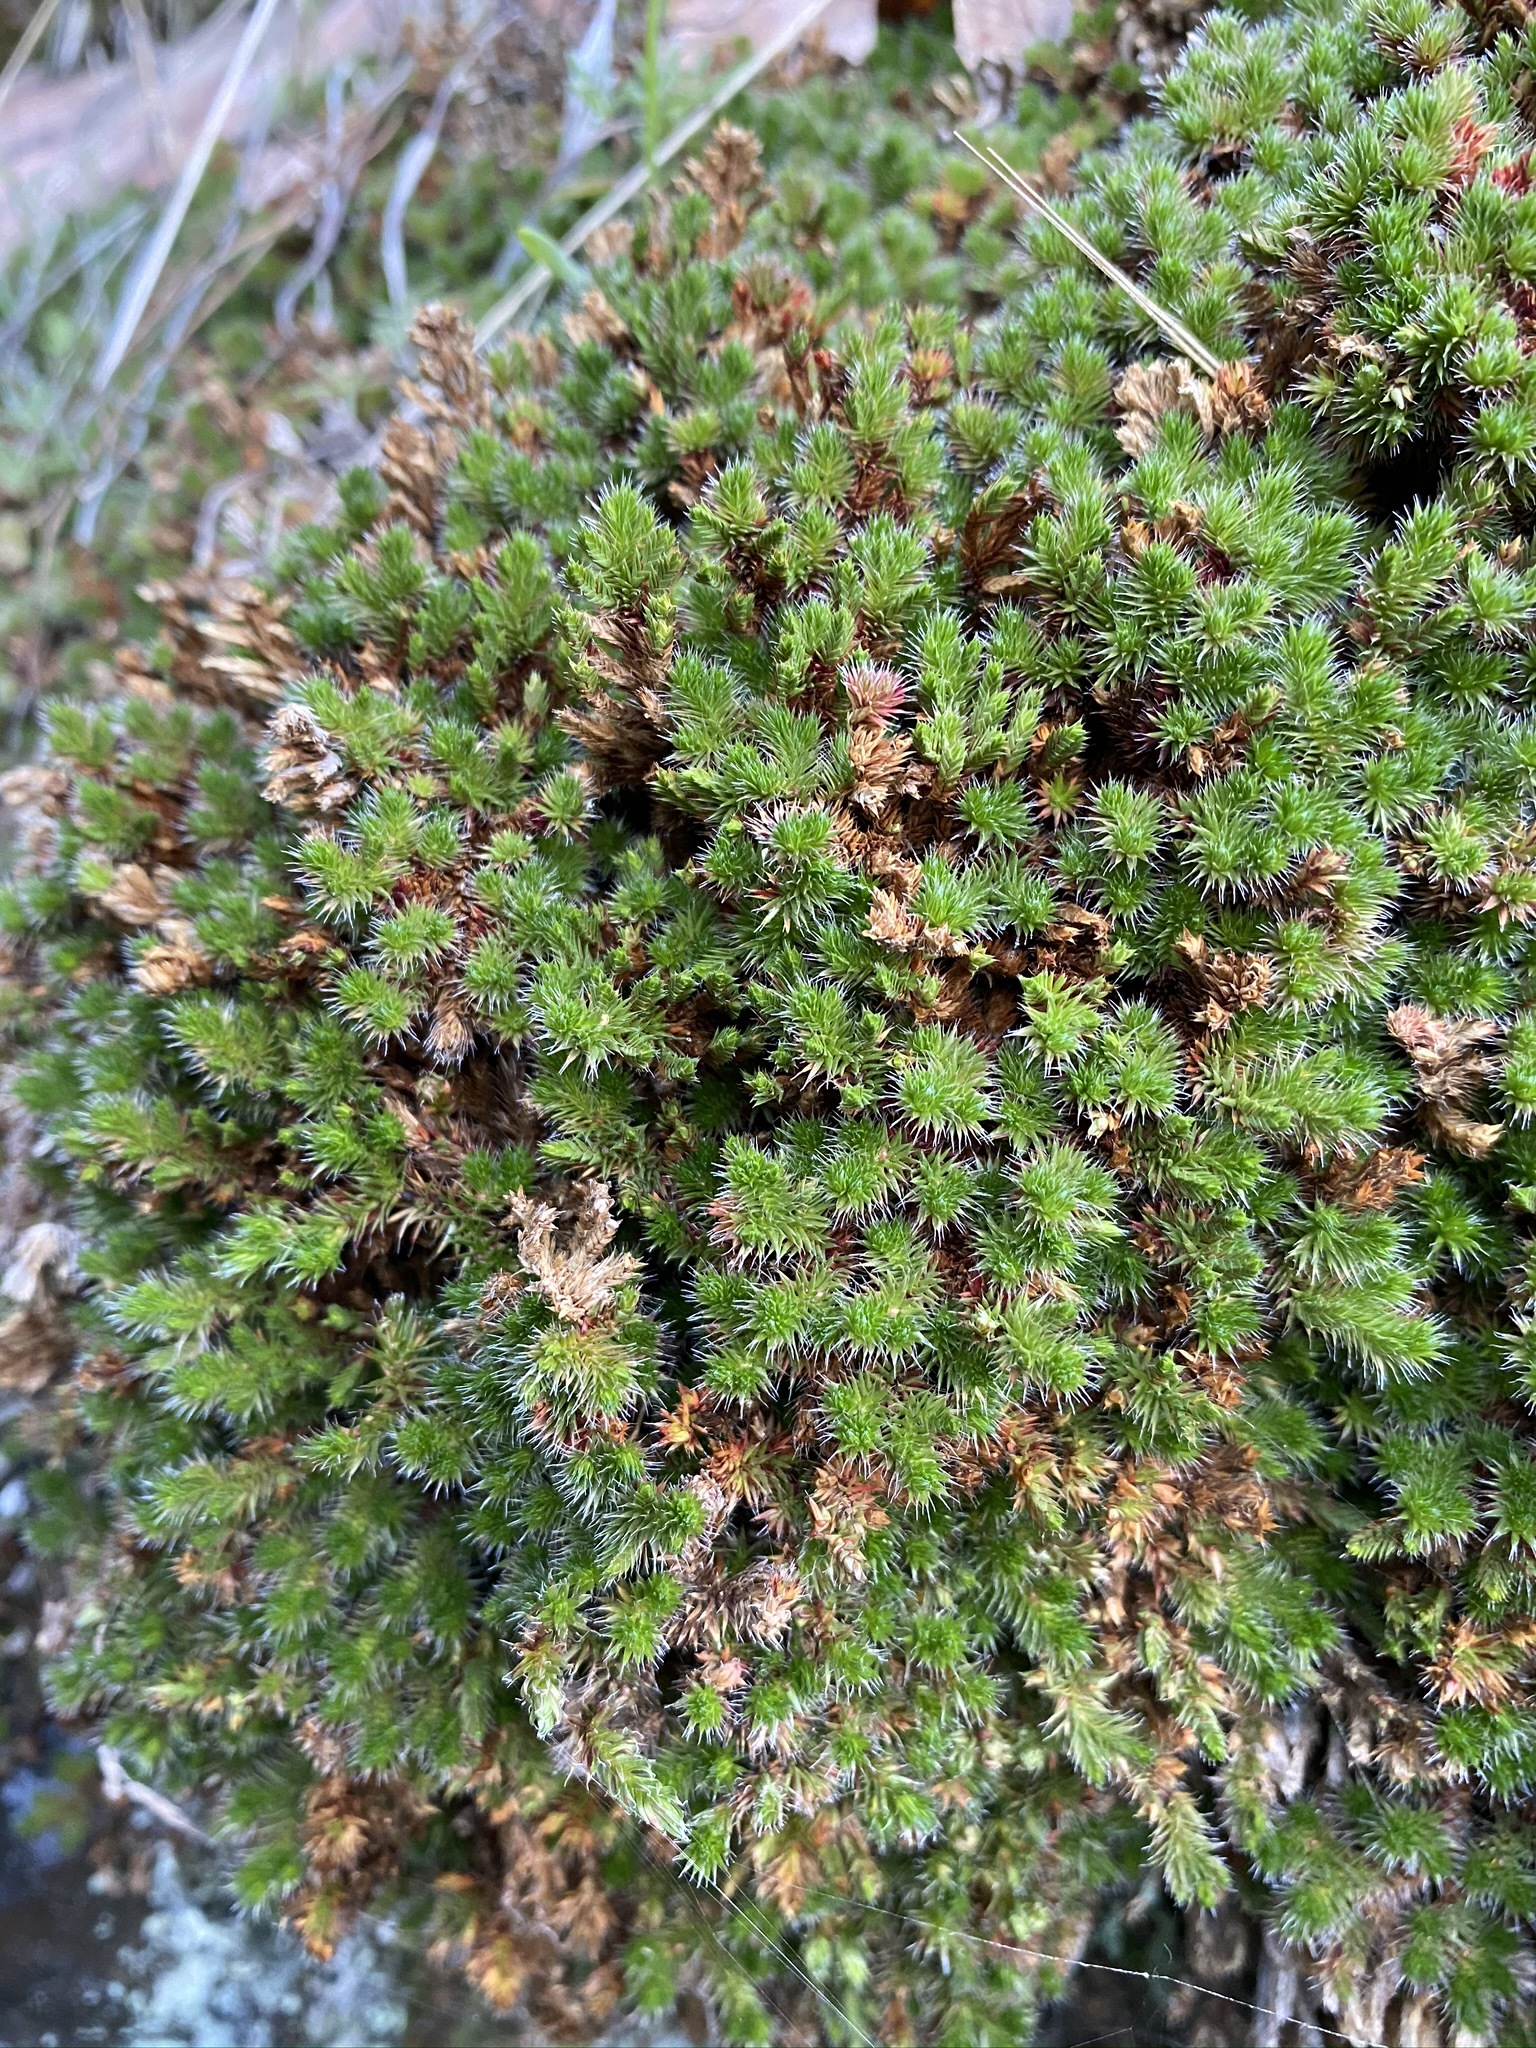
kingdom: Plantae
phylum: Tracheophyta
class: Lycopodiopsida
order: Selaginellales
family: Selaginellaceae
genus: Selaginella
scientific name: Selaginella hansenii
